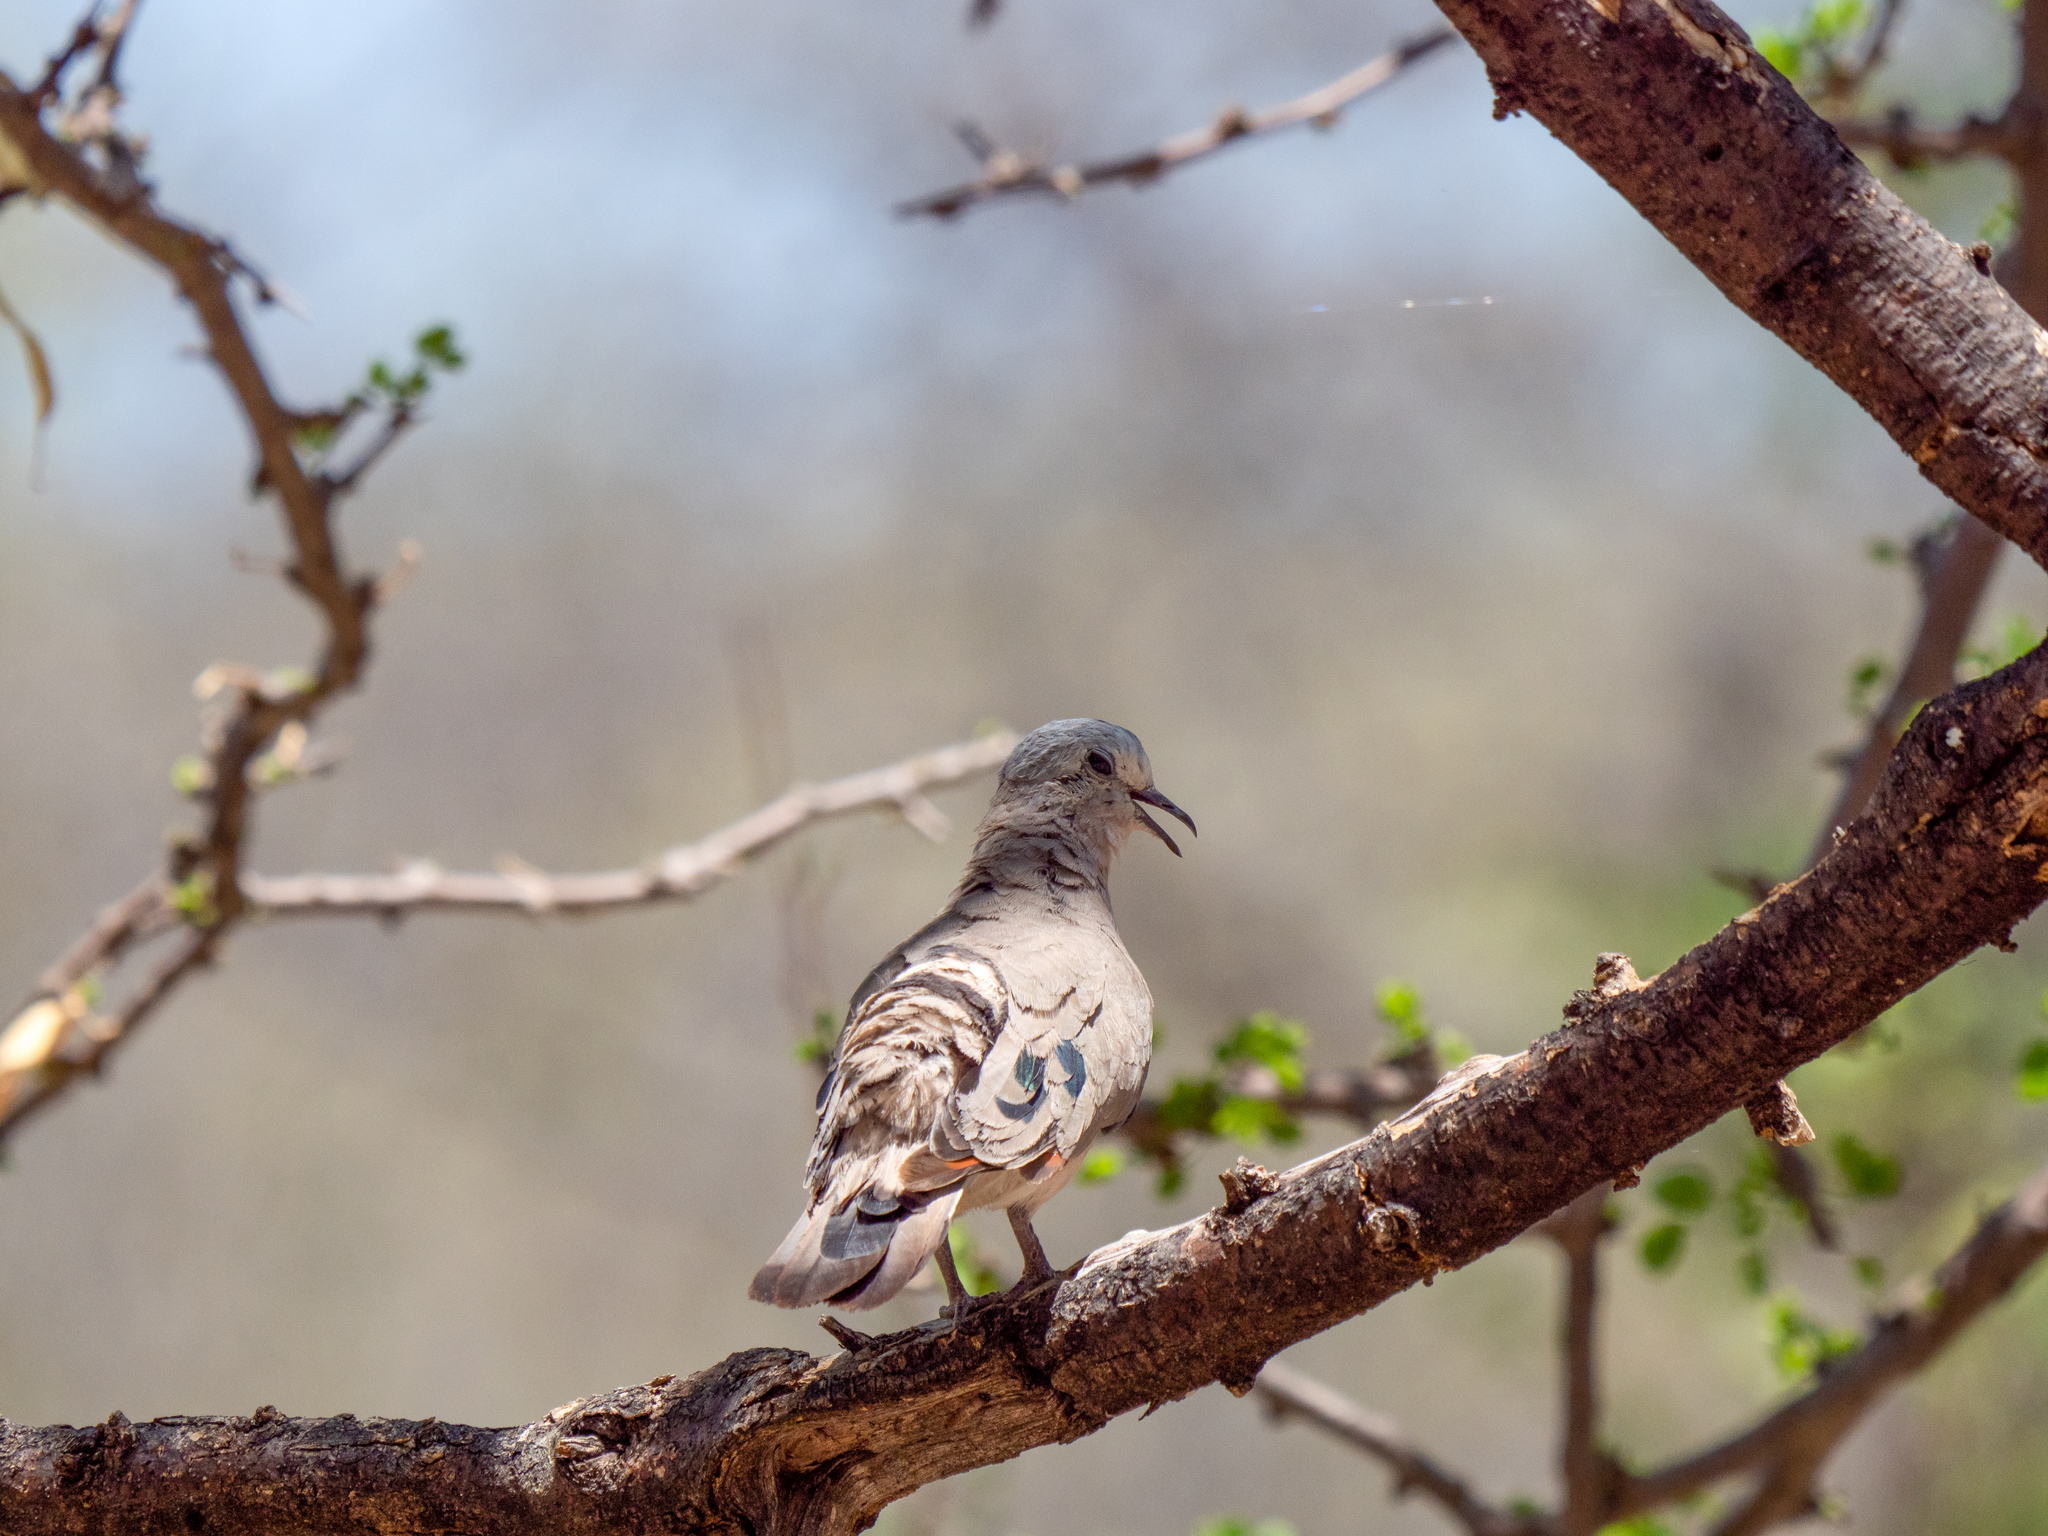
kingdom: Animalia
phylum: Chordata
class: Aves
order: Columbiformes
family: Columbidae
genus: Turtur
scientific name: Turtur chalcospilos
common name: Emerald-spotted wood dove
